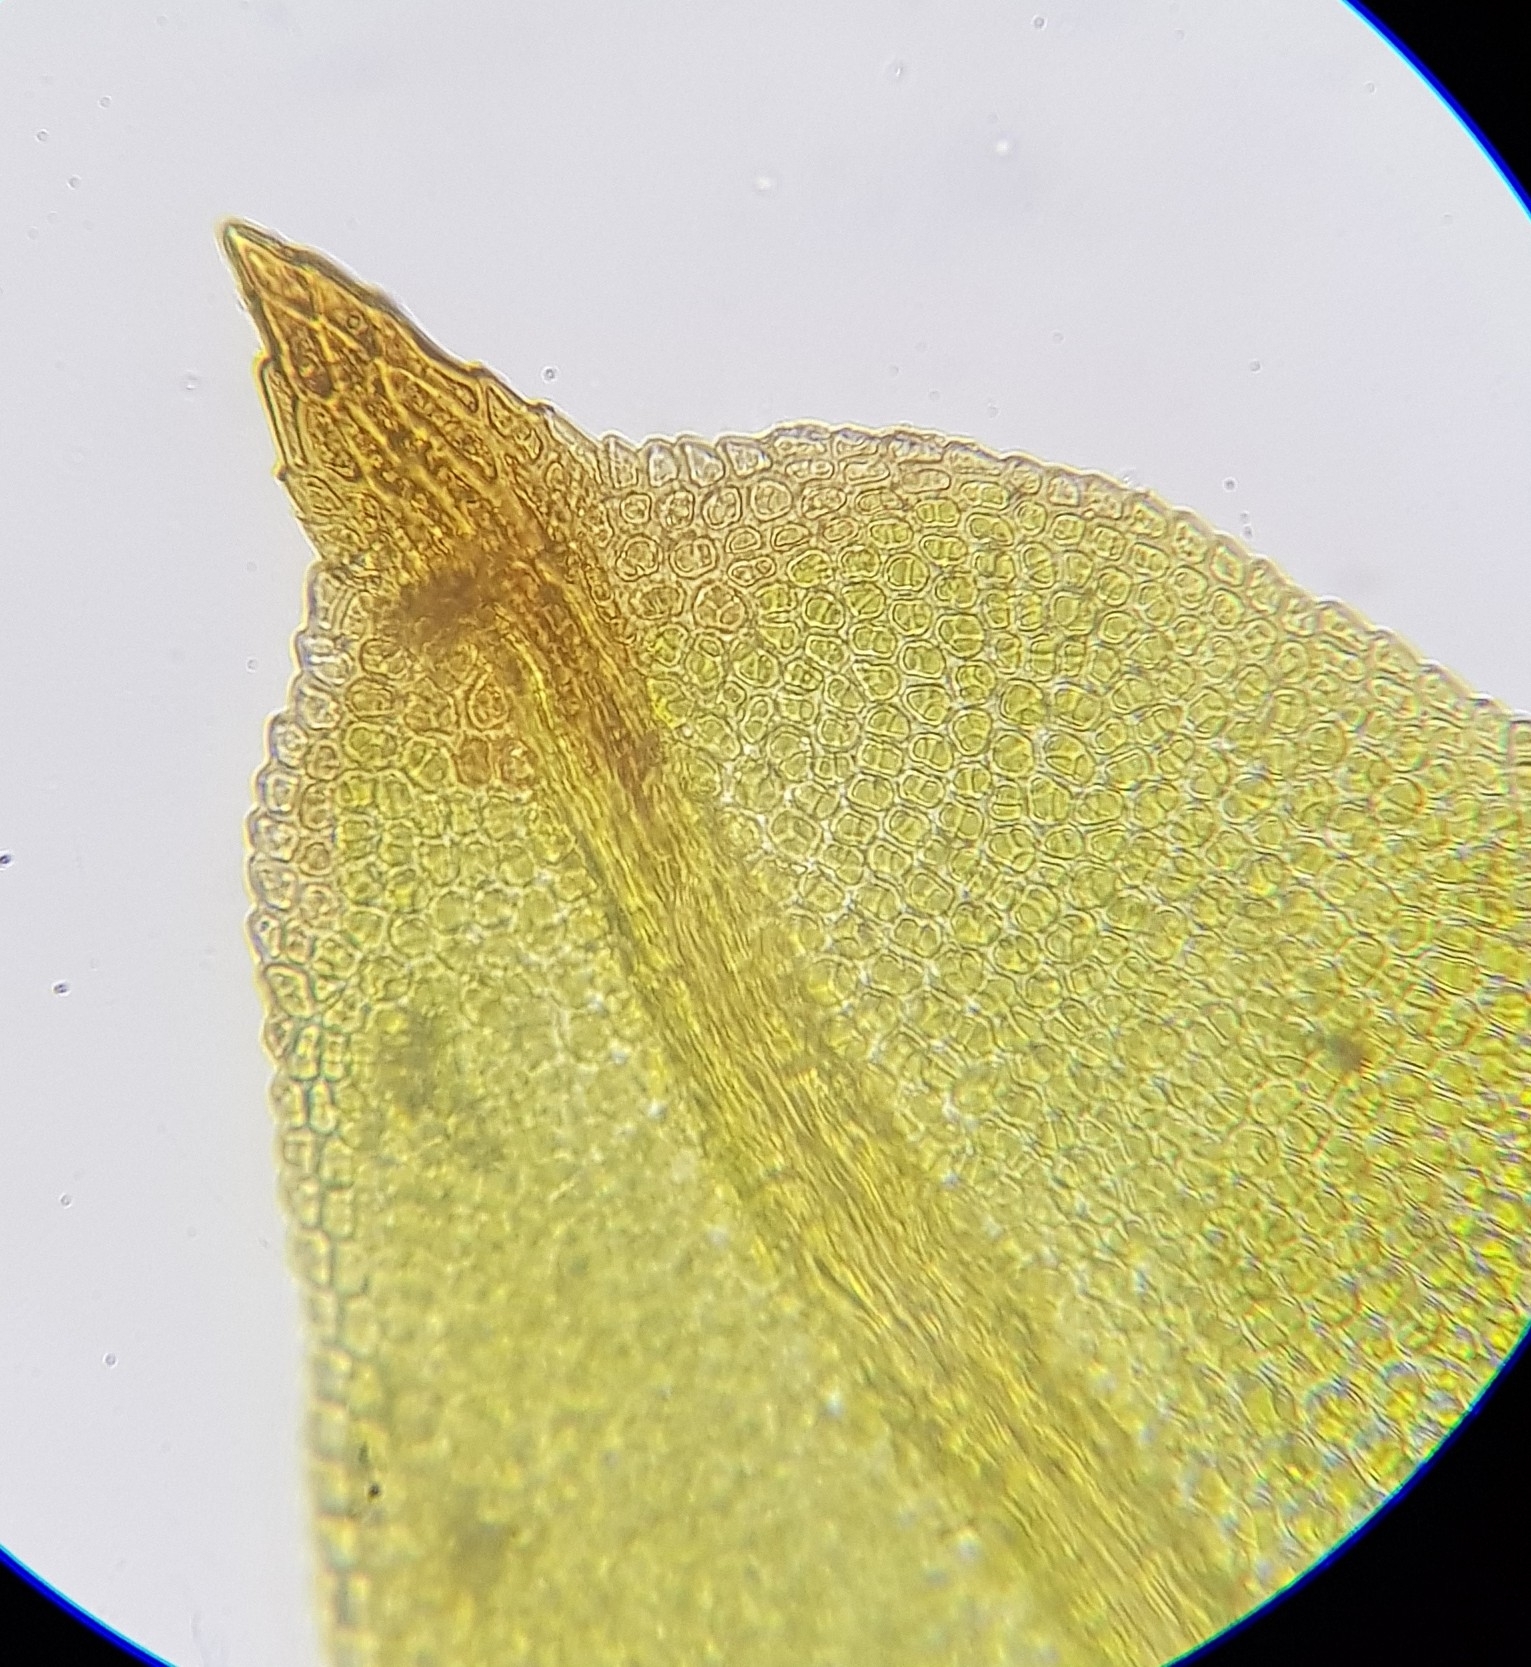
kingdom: Plantae
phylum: Bryophyta
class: Bryopsida
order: Dicranales
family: Fissidentaceae
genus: Fissidens
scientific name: Fissidens taxifolius
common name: Yew-leaved pocket moss
